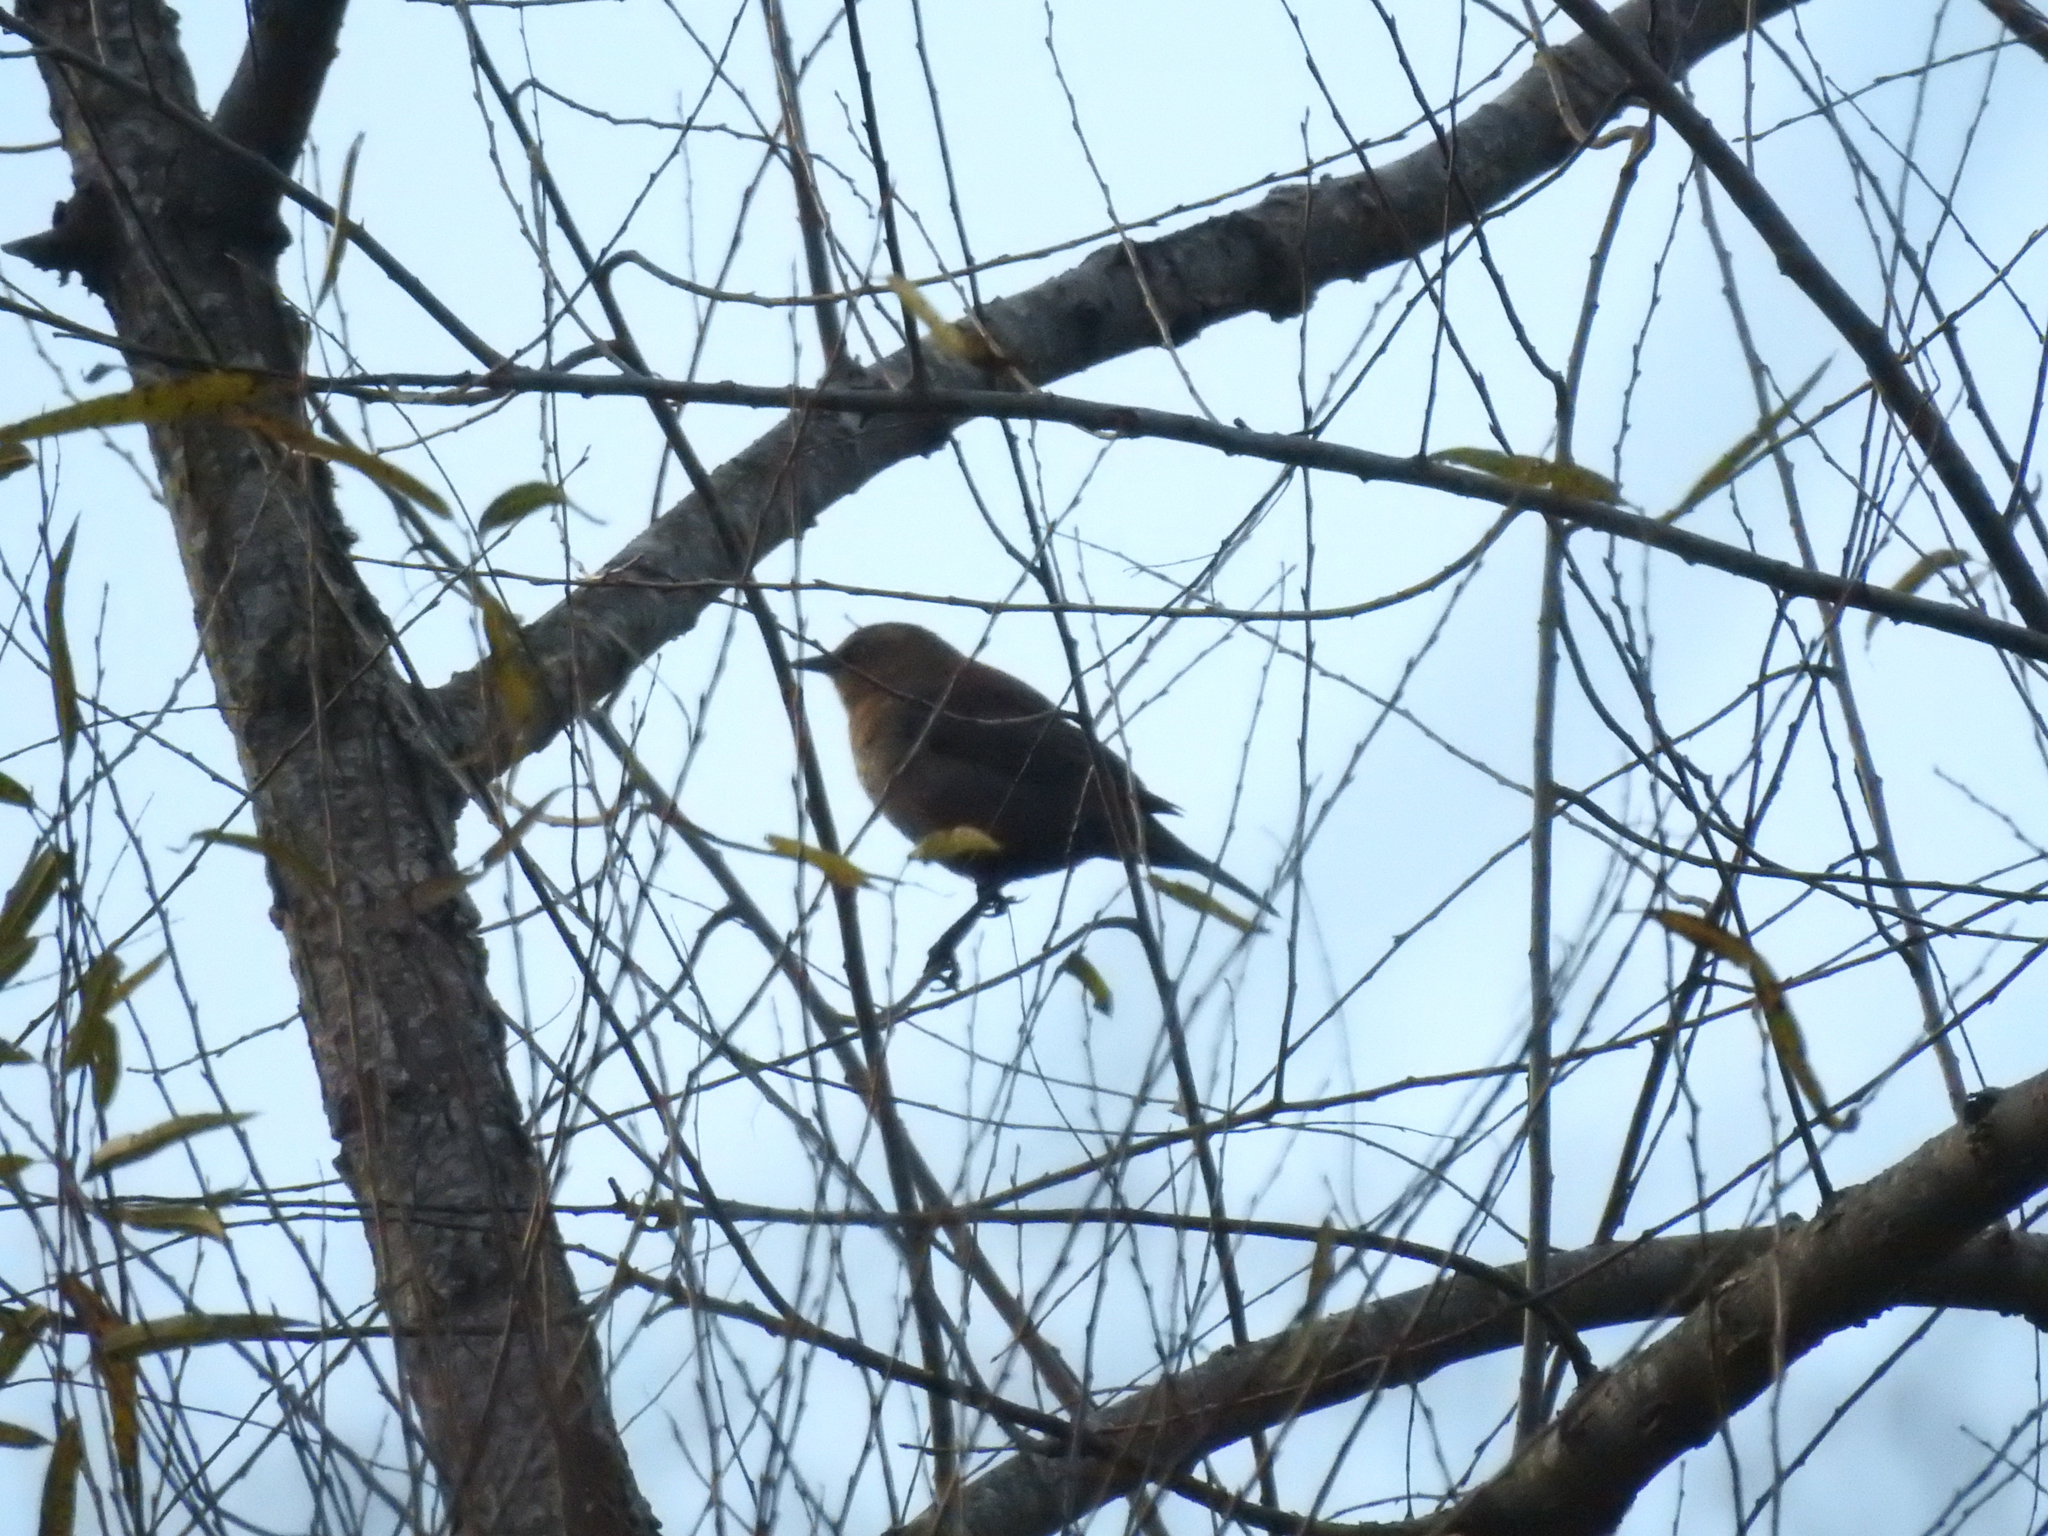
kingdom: Animalia
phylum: Chordata
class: Aves
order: Passeriformes
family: Icteridae
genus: Euphagus
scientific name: Euphagus carolinus
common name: Rusty blackbird
